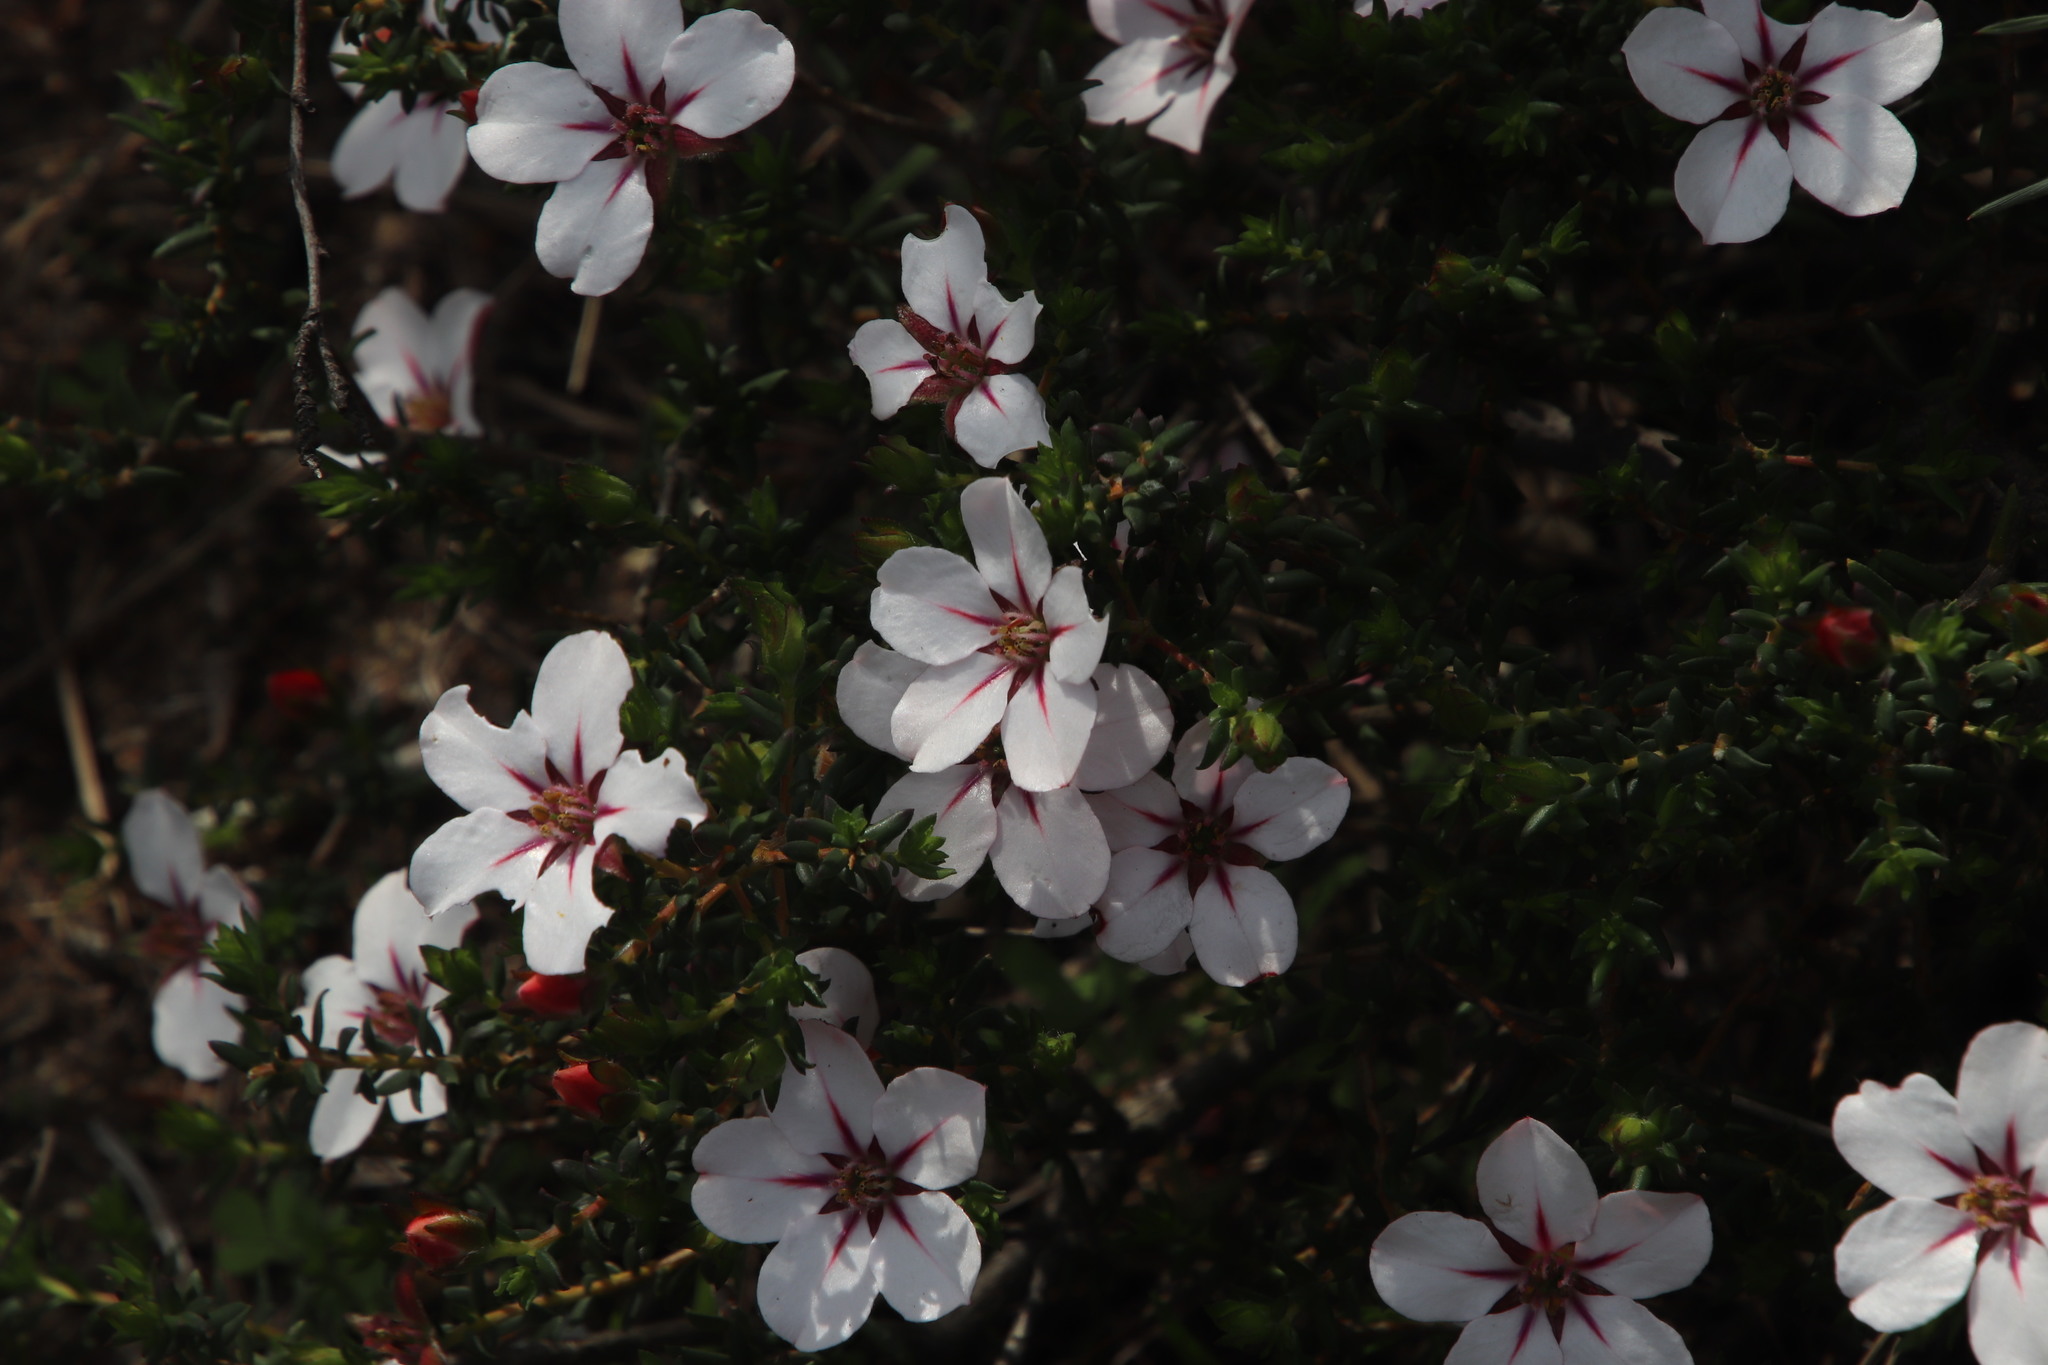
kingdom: Plantae
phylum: Tracheophyta
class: Magnoliopsida
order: Sapindales
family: Rutaceae
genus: Adenandra
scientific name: Adenandra uniflora
